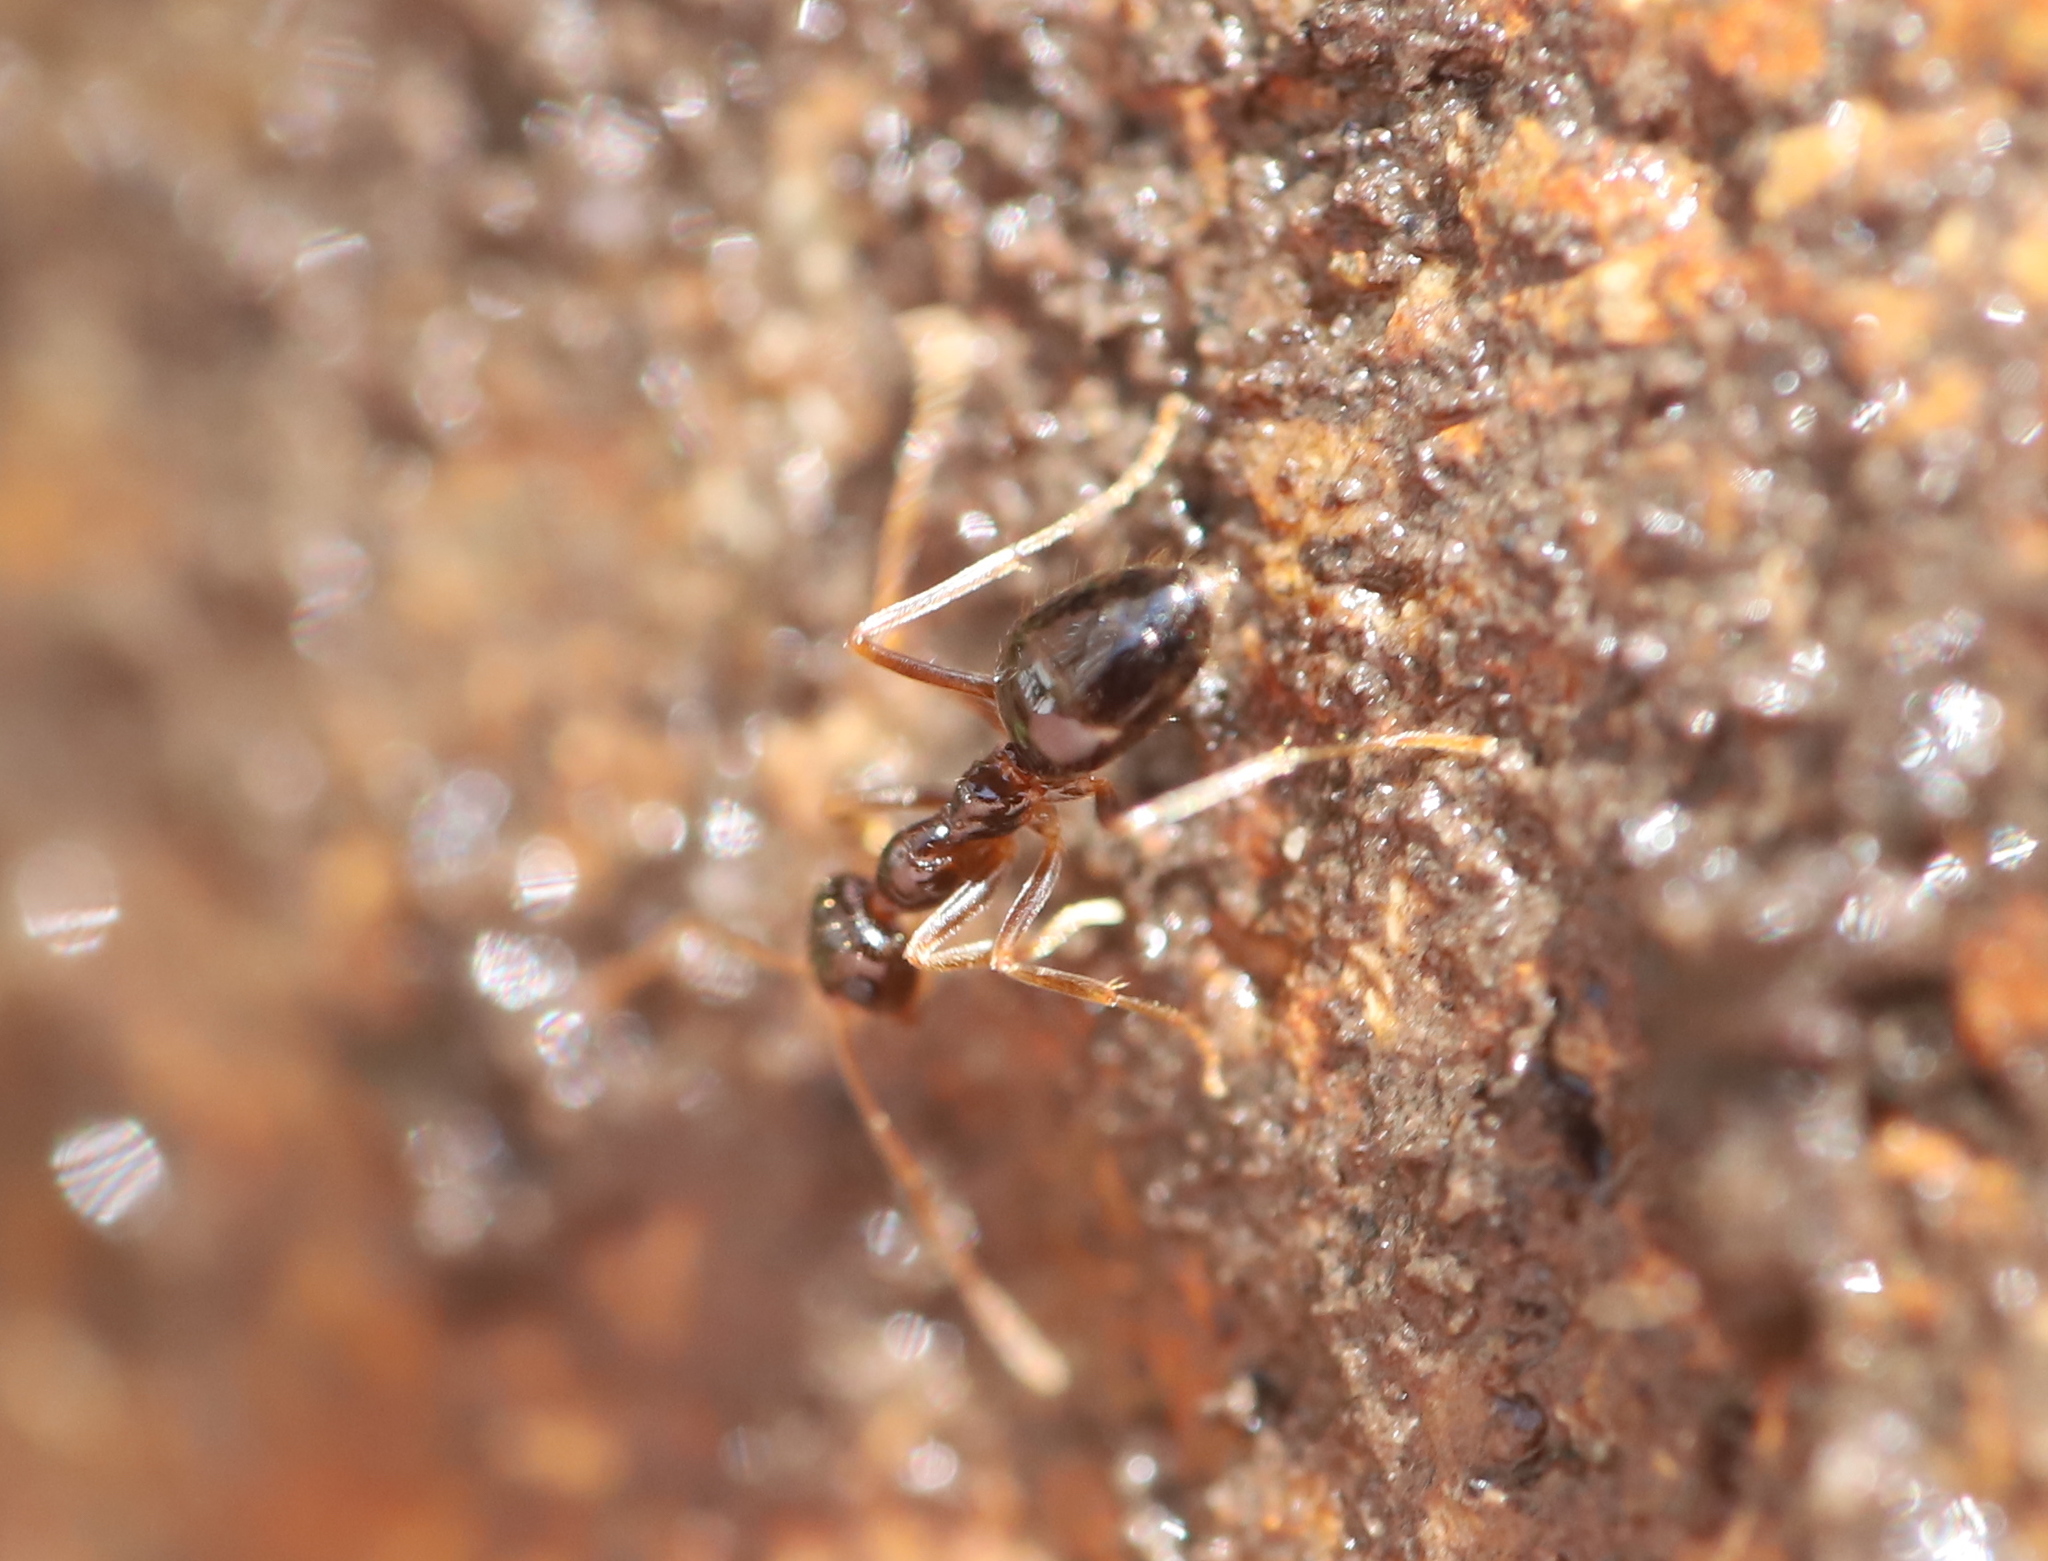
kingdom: Animalia
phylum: Arthropoda
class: Insecta
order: Hymenoptera
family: Formicidae
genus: Prenolepis
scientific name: Prenolepis imparis
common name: Small honey ant
